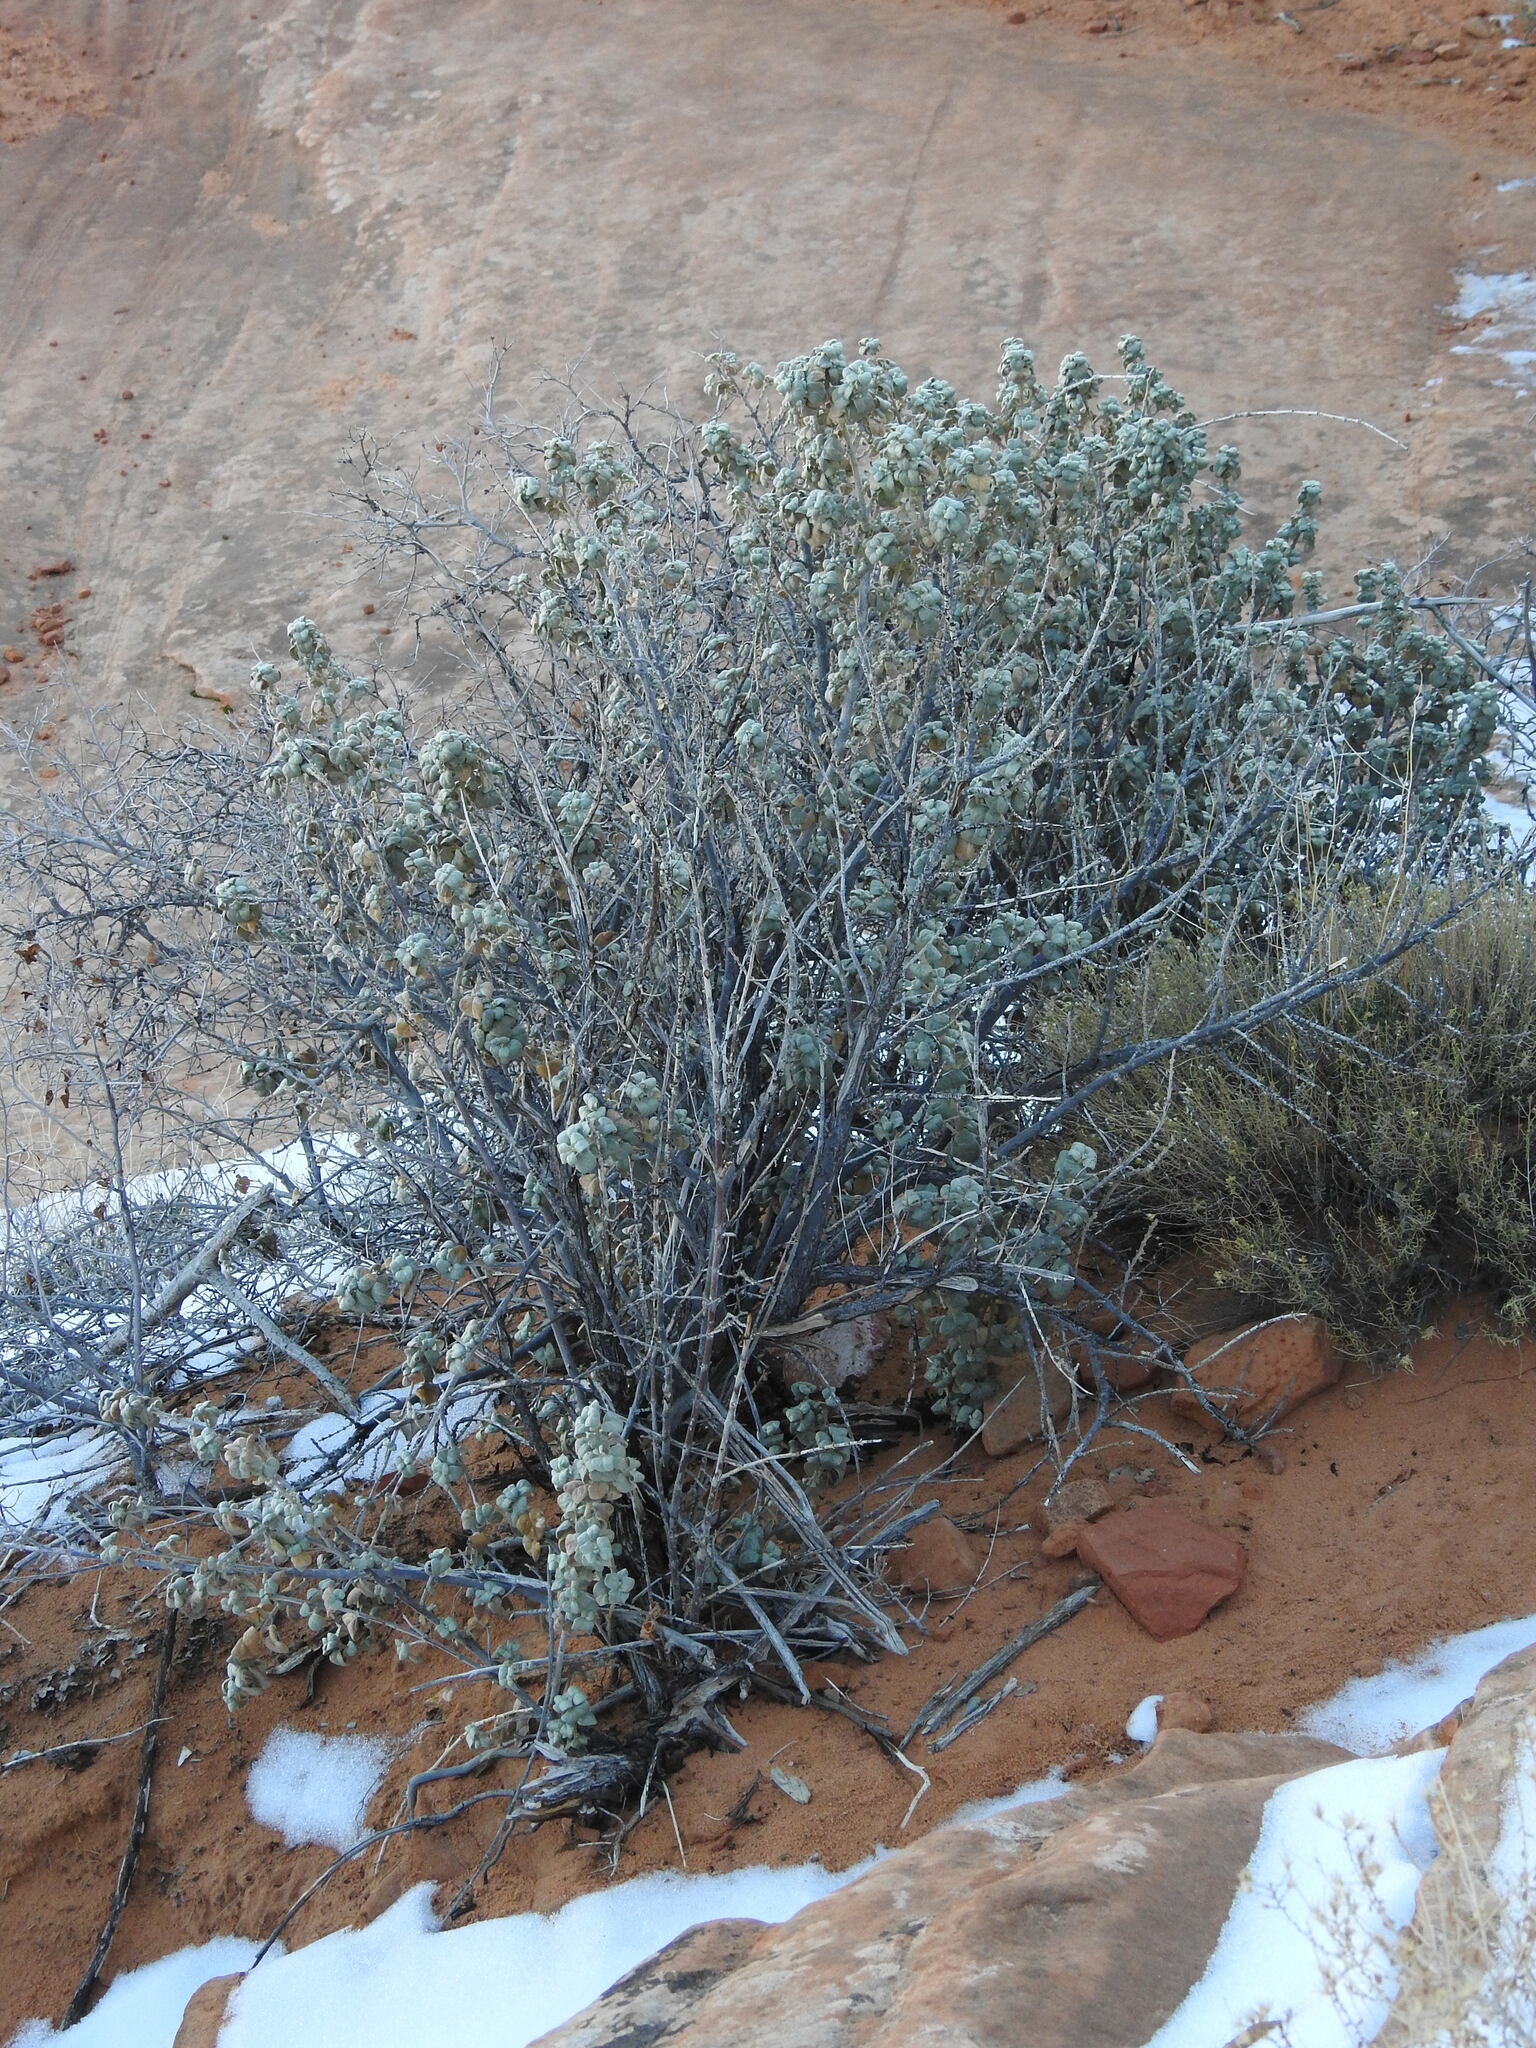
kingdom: Plantae
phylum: Tracheophyta
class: Magnoliopsida
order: Rosales
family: Elaeagnaceae
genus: Shepherdia
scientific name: Shepherdia rotundifolia
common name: Silverscale
